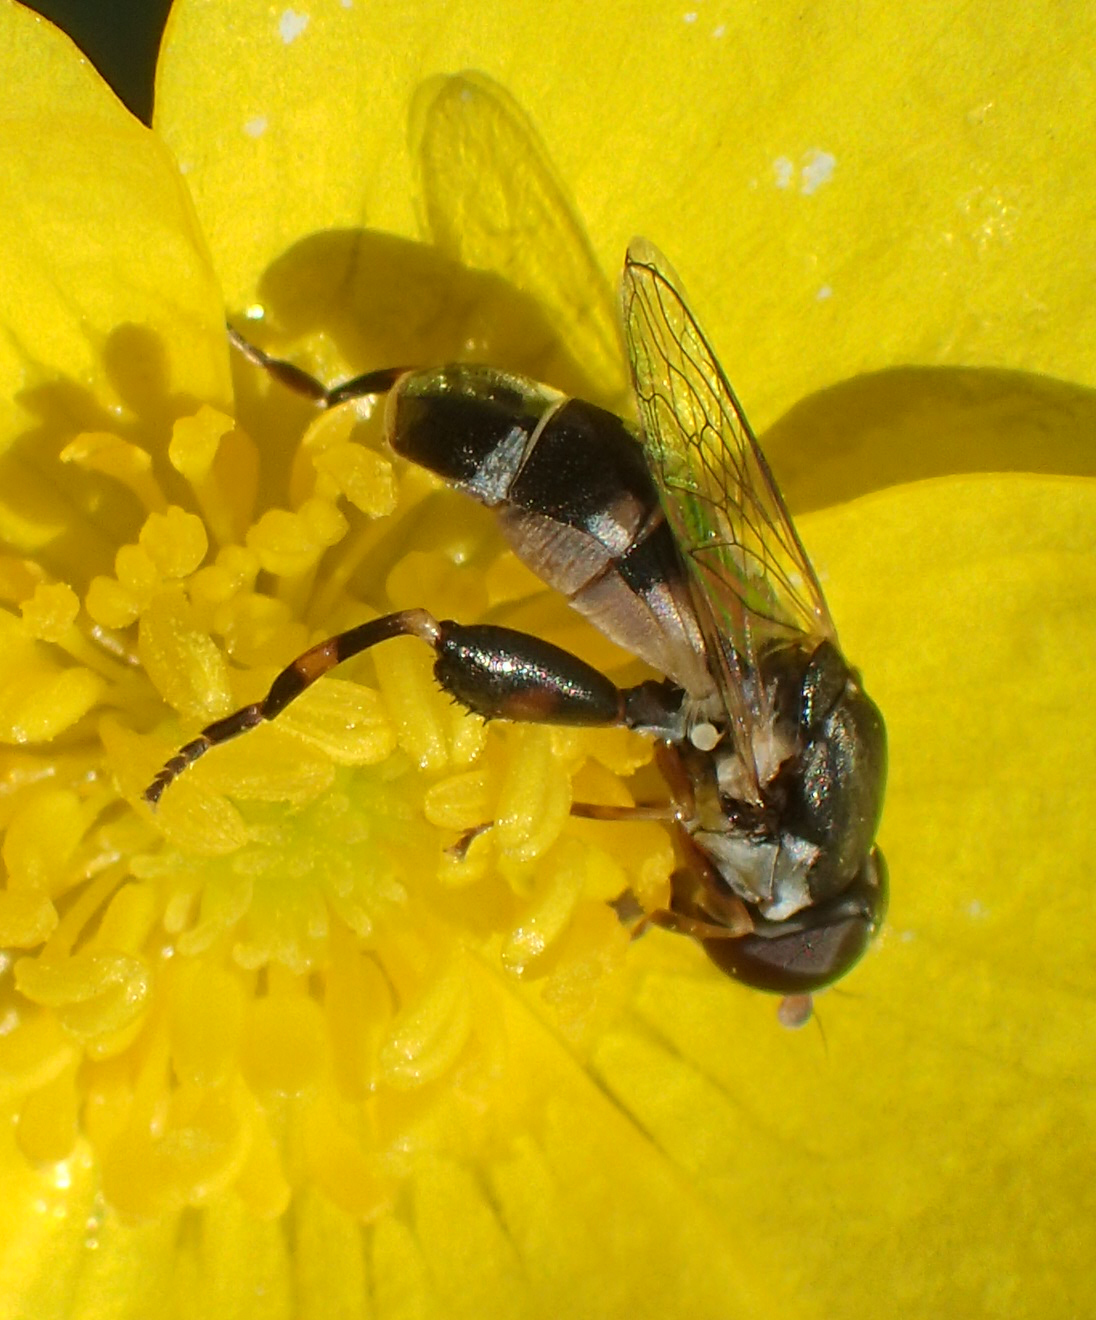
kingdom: Animalia
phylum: Arthropoda
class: Insecta
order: Diptera
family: Syrphidae
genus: Syritta
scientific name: Syritta pipiens
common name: Hover fly
